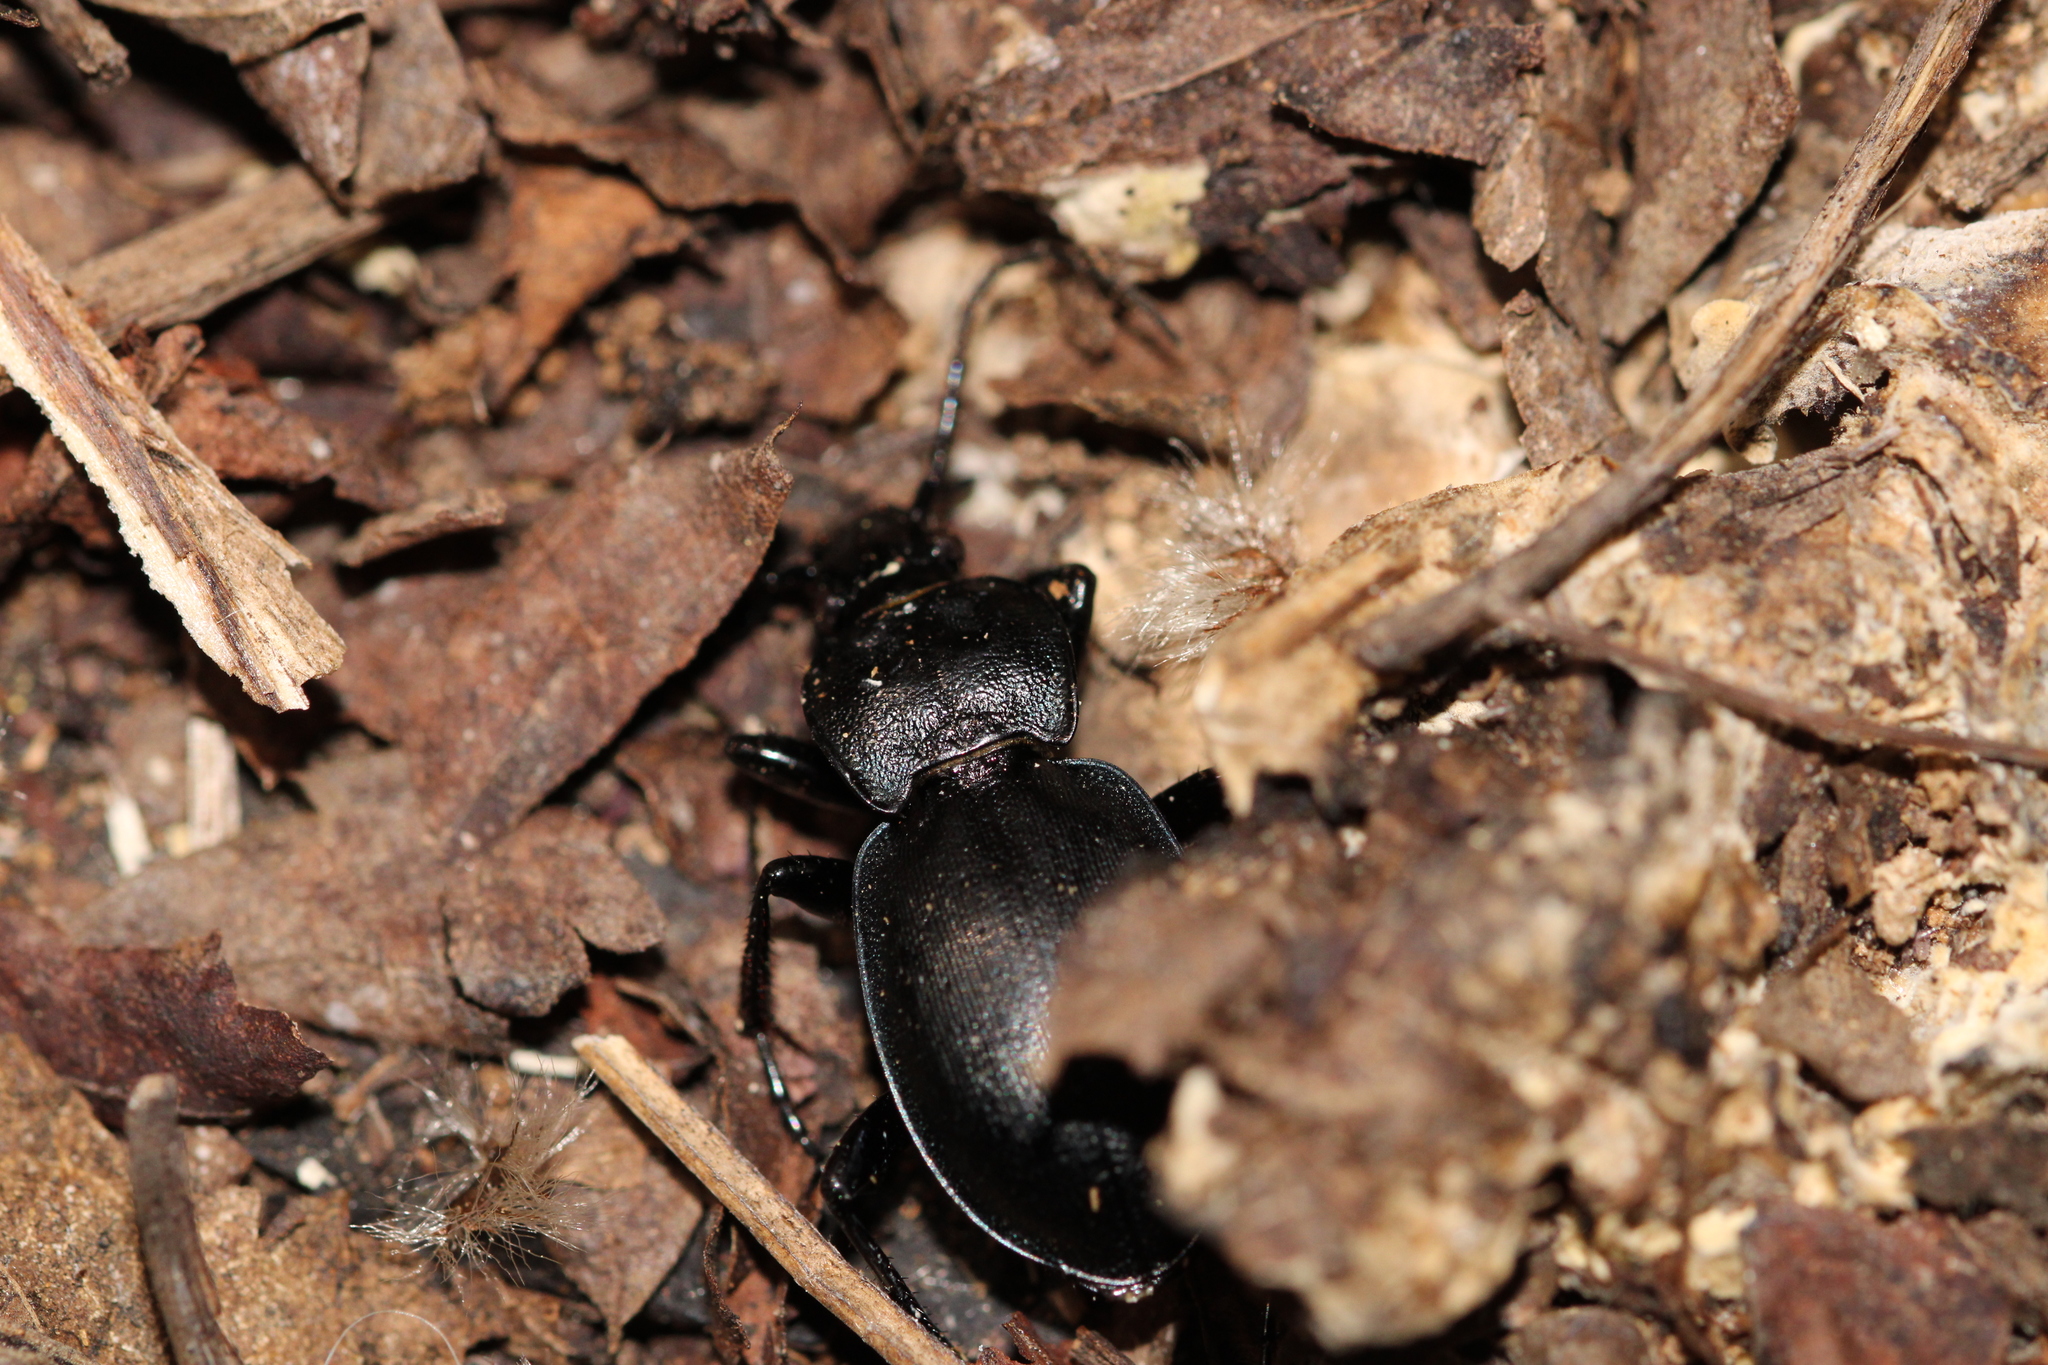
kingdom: Animalia
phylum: Arthropoda
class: Insecta
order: Coleoptera
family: Carabidae
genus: Carabus
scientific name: Carabus convexus
